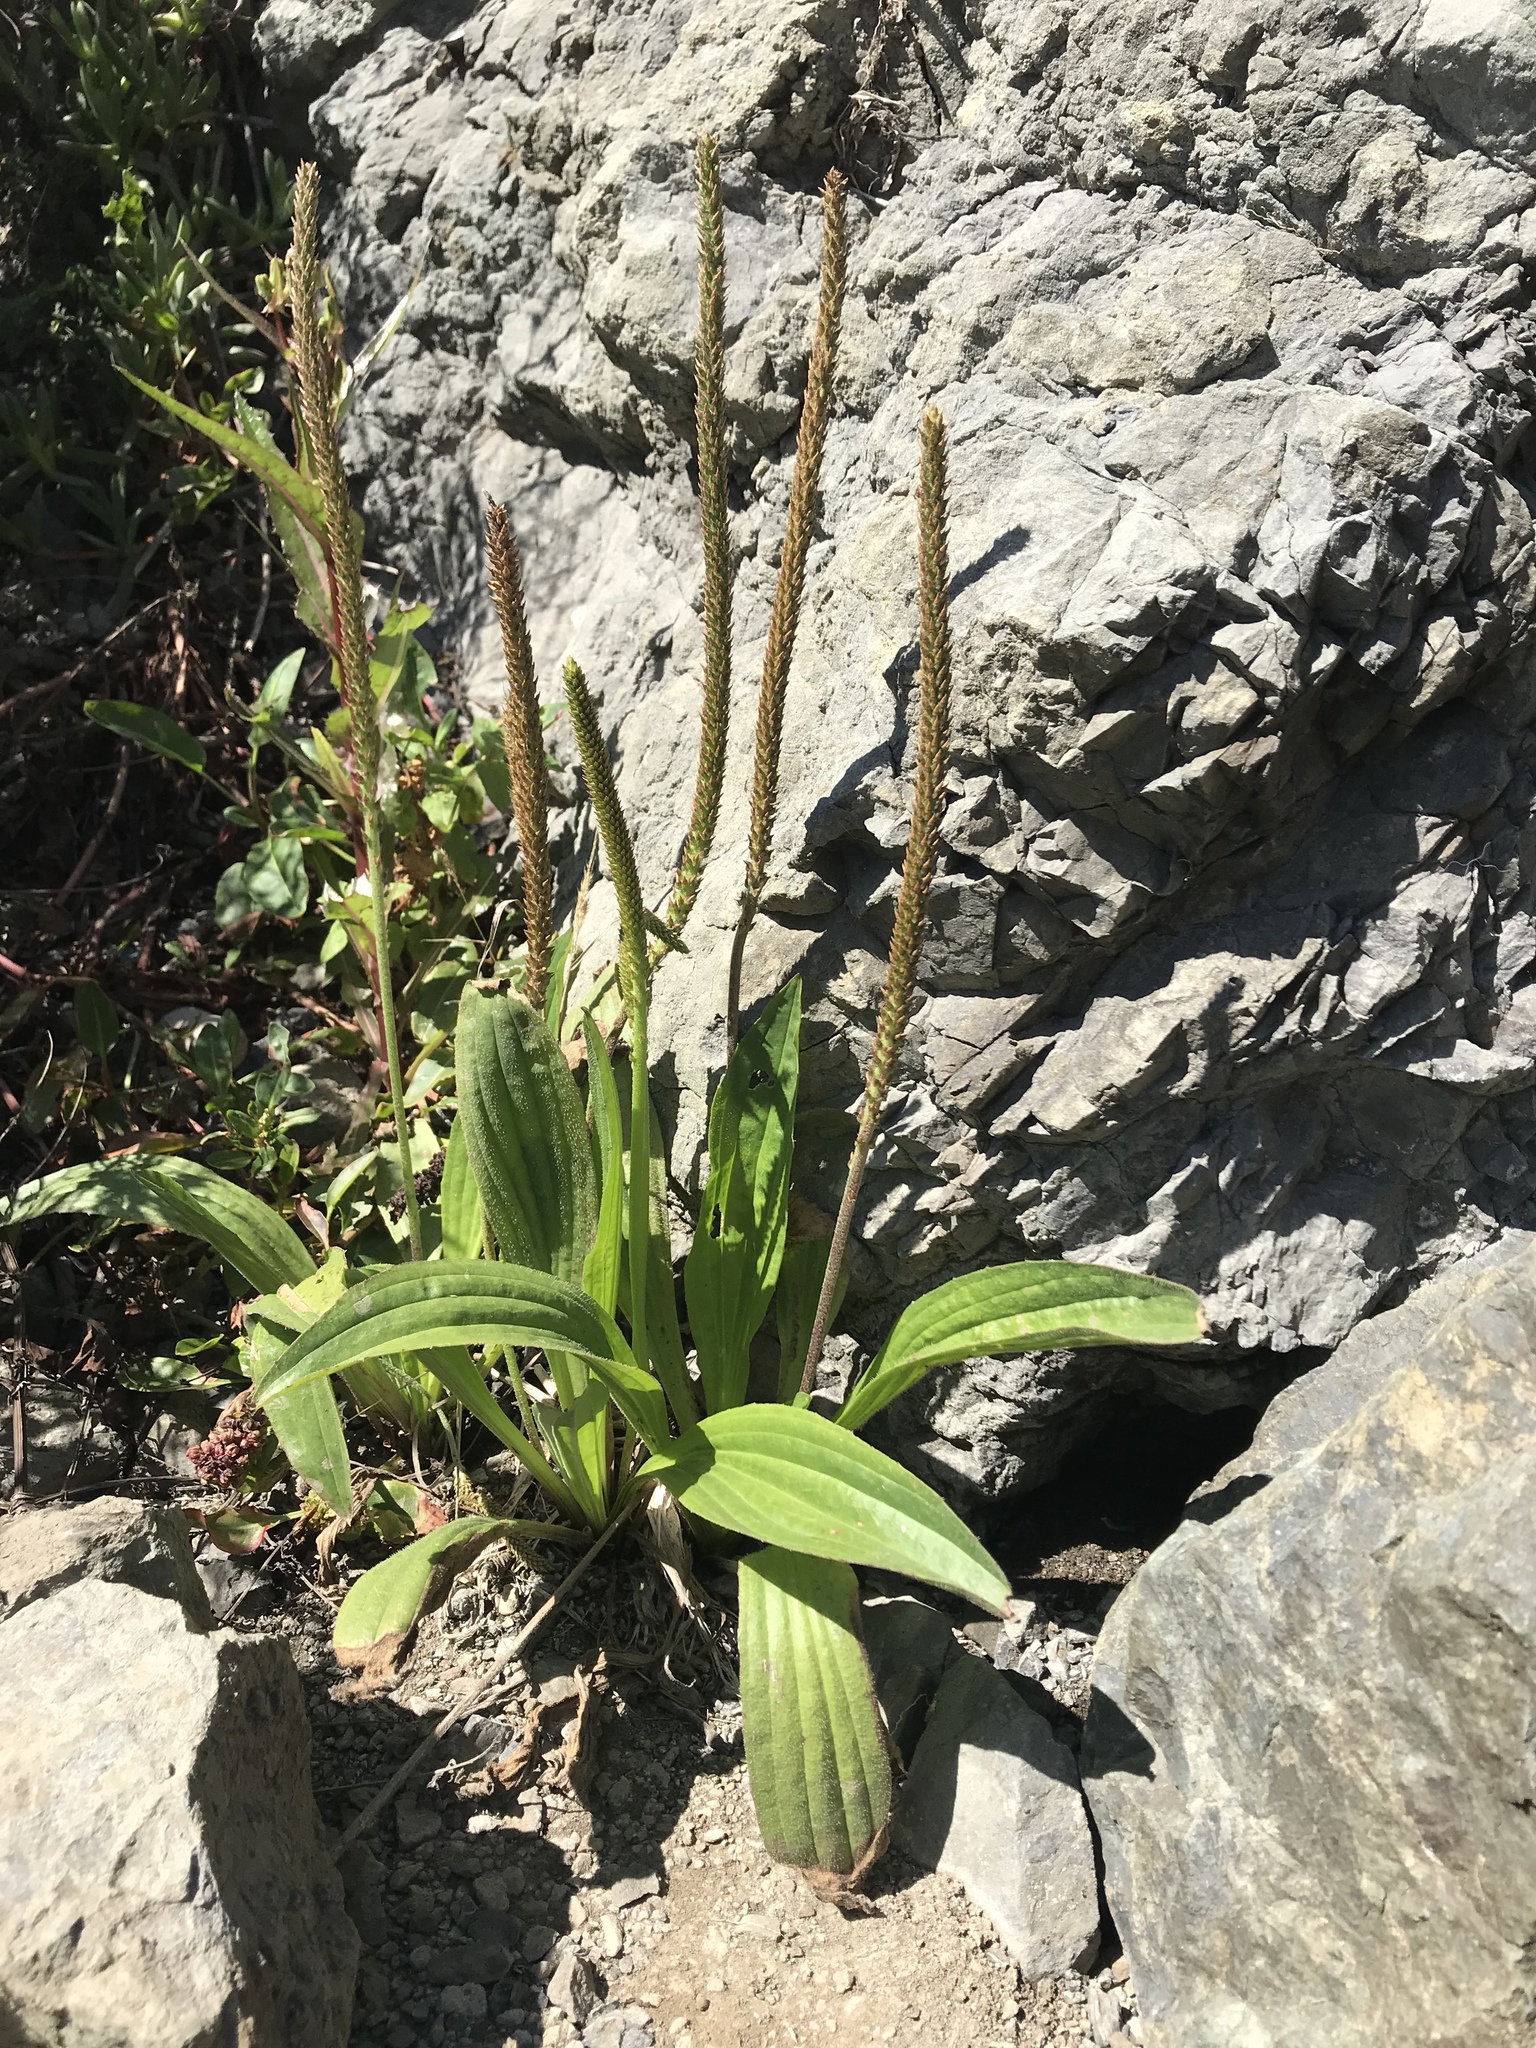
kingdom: Plantae
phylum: Tracheophyta
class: Magnoliopsida
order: Lamiales
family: Plantaginaceae
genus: Plantago
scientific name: Plantago subnuda
